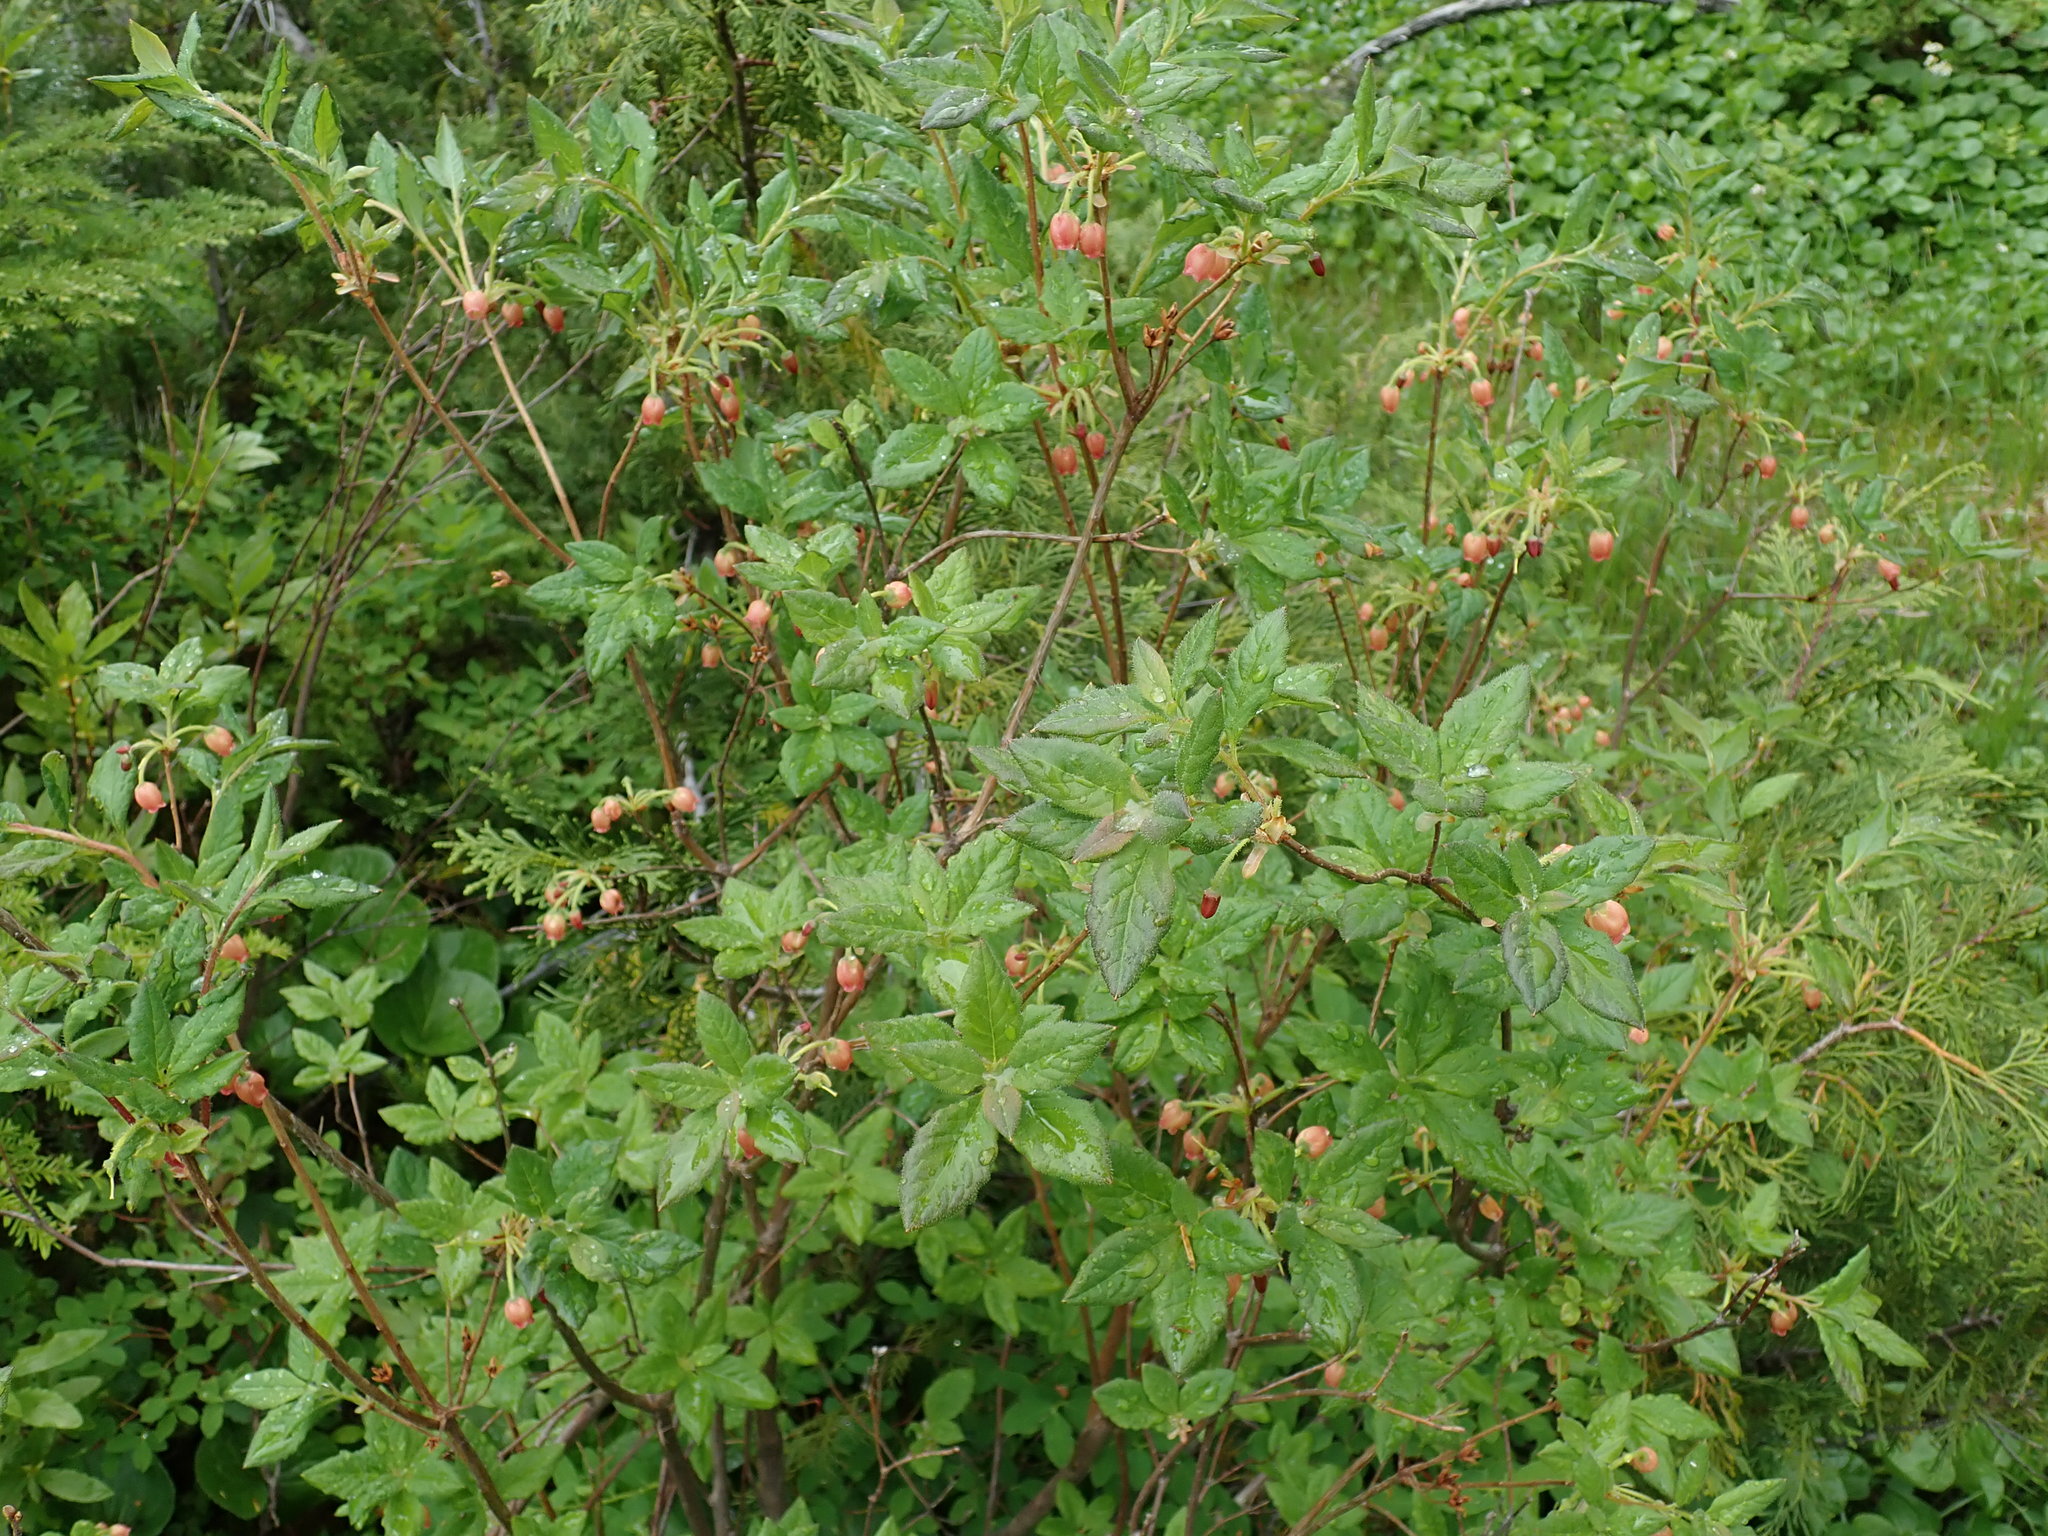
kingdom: Plantae
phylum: Tracheophyta
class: Magnoliopsida
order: Ericales
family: Ericaceae
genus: Rhododendron
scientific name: Rhododendron menziesii
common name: Pacific menziesia
